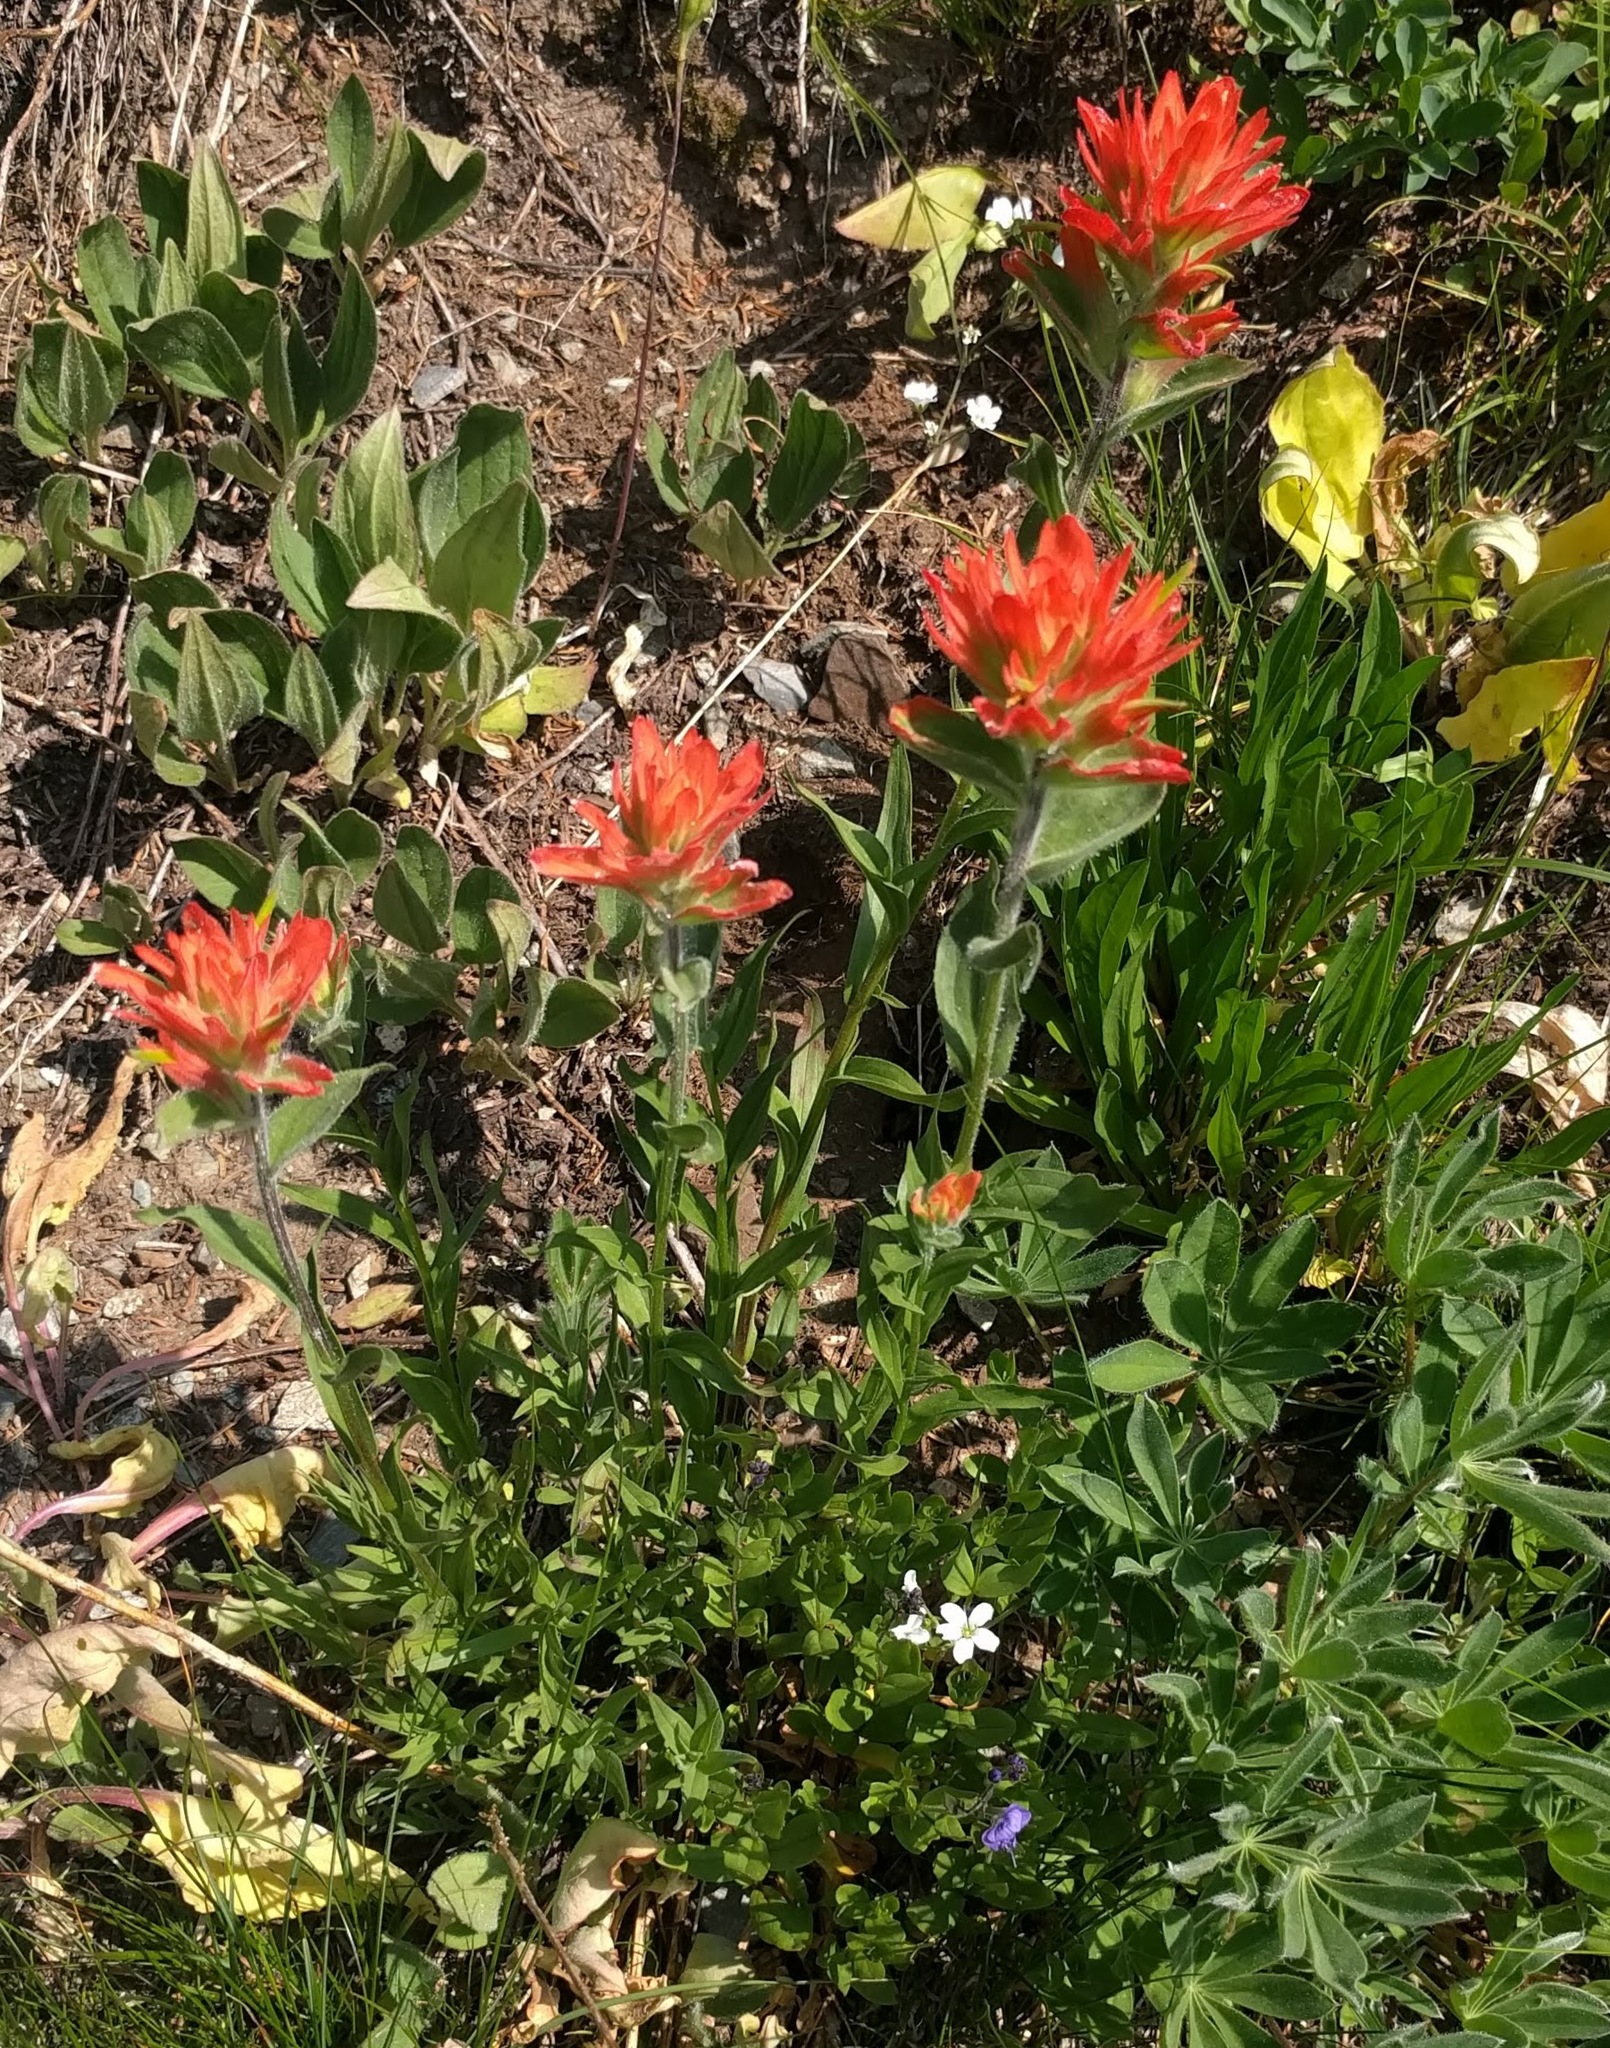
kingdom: Plantae
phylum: Tracheophyta
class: Magnoliopsida
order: Lamiales
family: Orobanchaceae
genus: Castilleja
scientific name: Castilleja miniata
